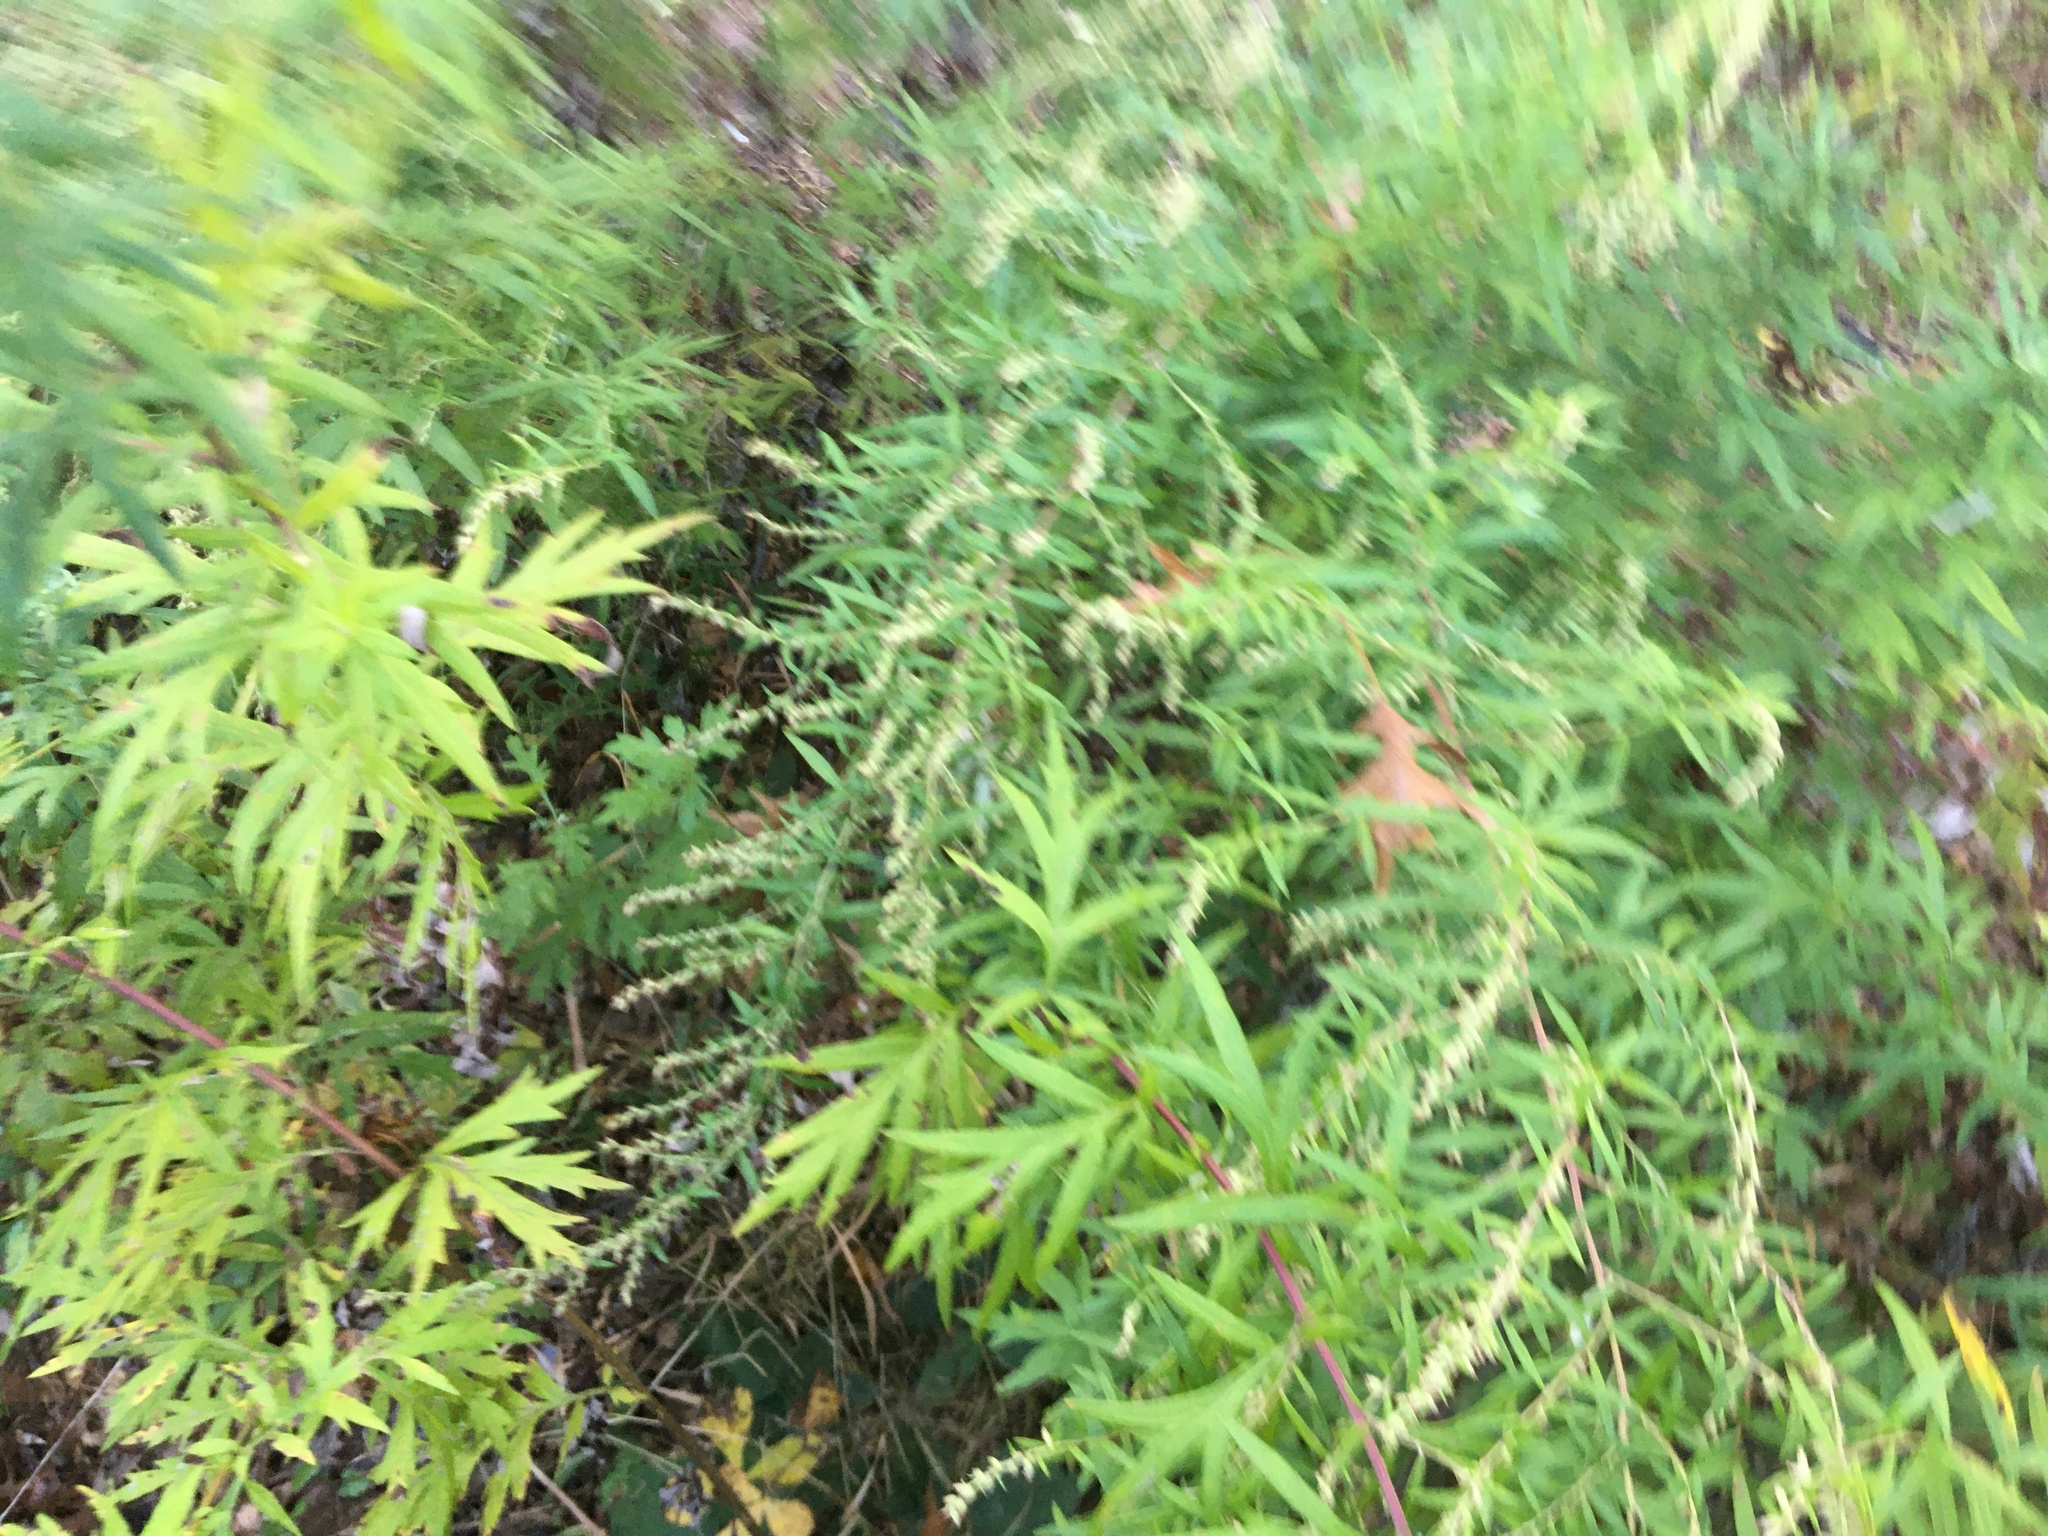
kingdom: Plantae
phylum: Tracheophyta
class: Magnoliopsida
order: Asterales
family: Asteraceae
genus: Artemisia
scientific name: Artemisia vulgaris
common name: Mugwort
